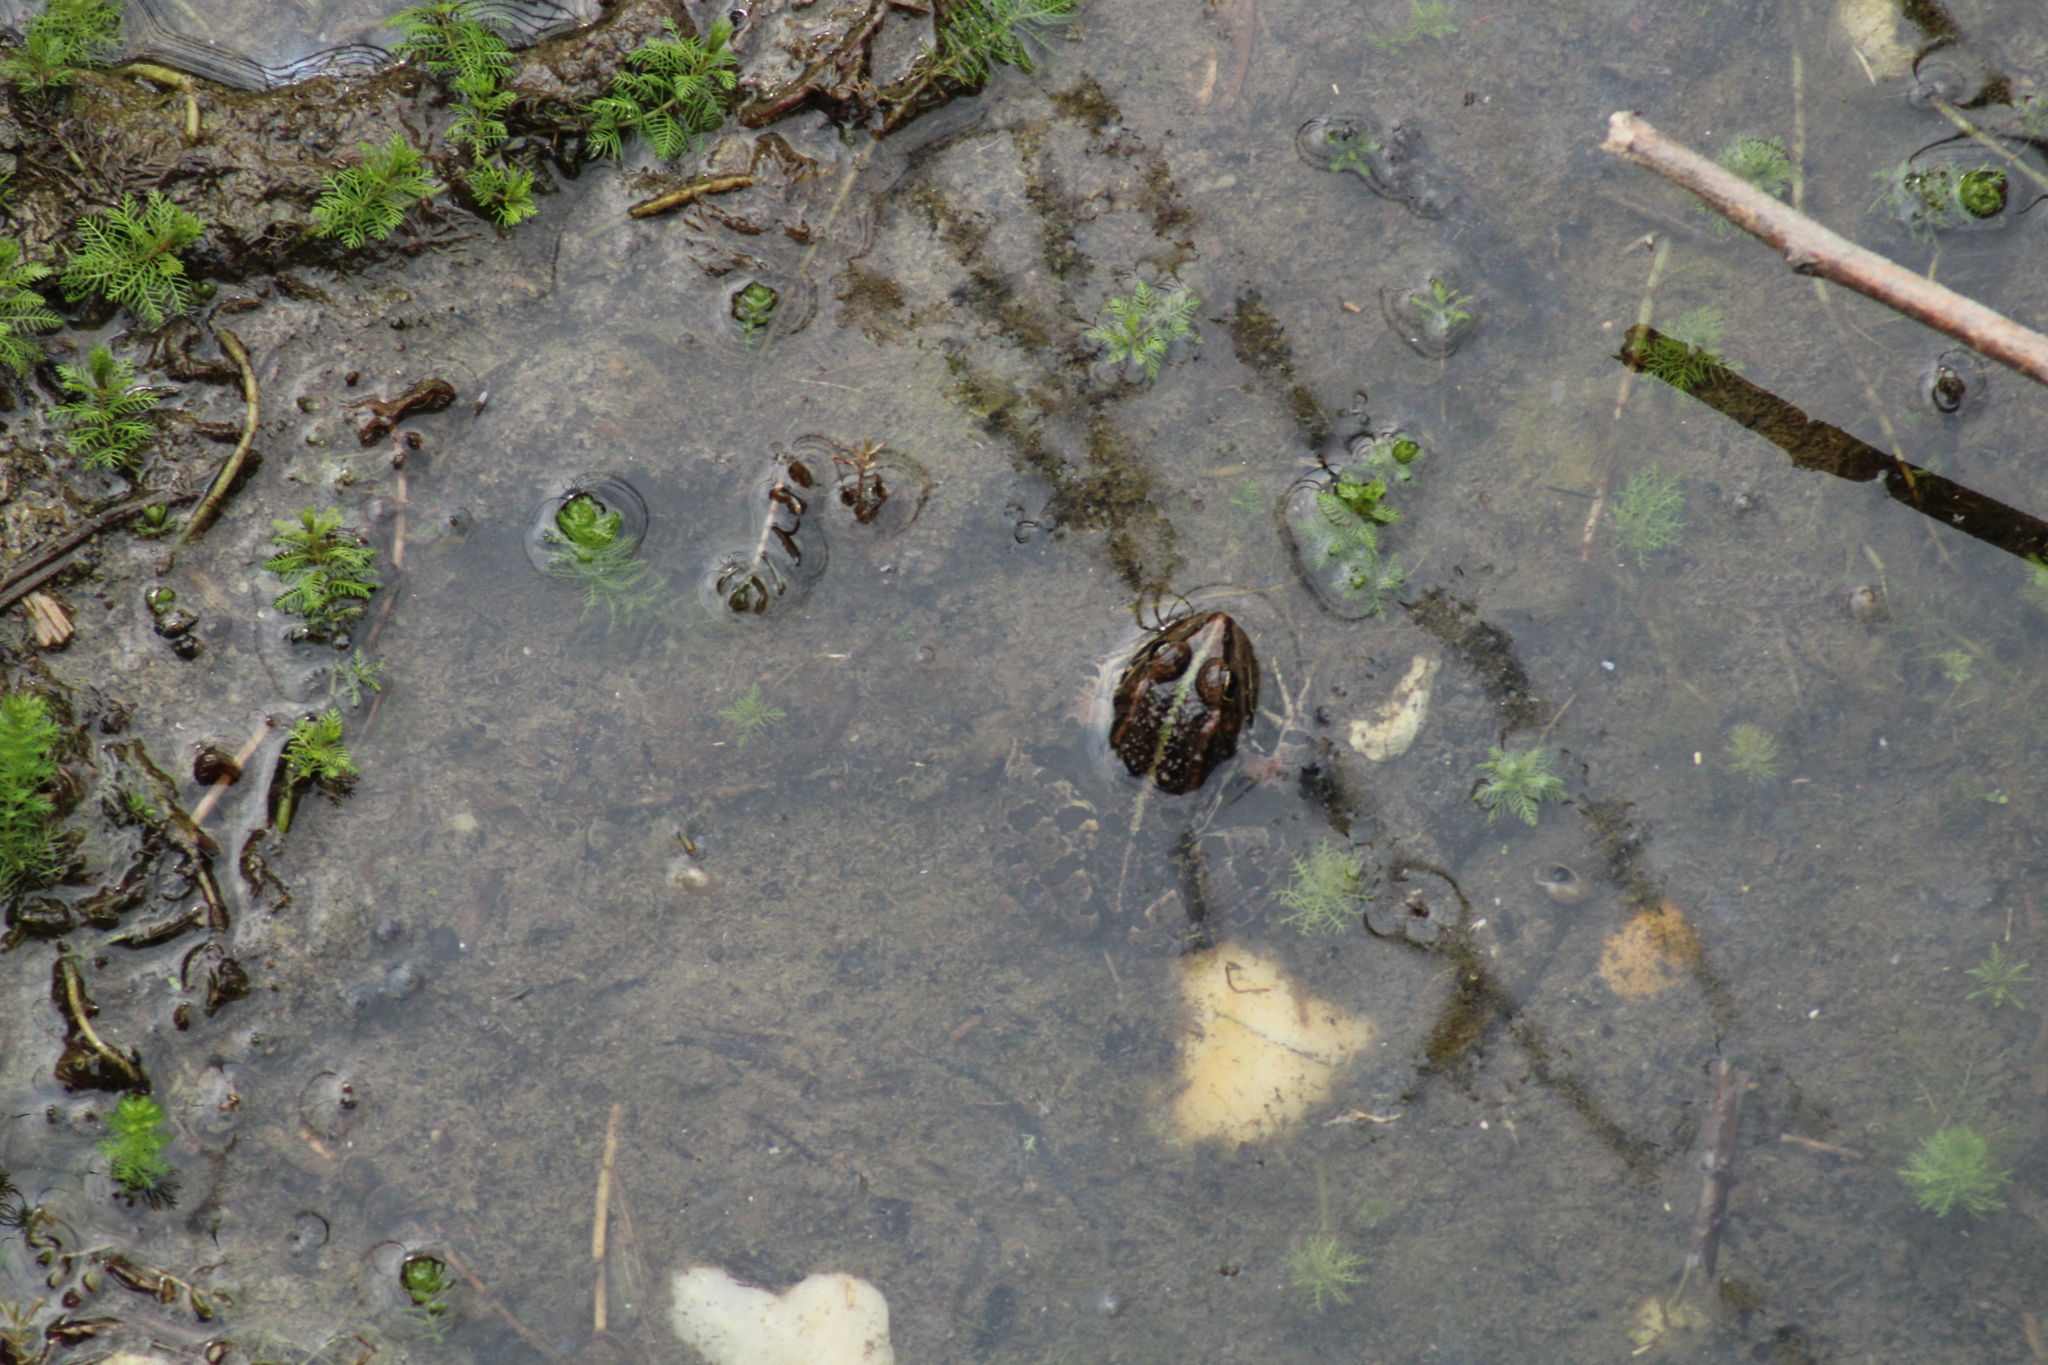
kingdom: Animalia
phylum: Chordata
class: Amphibia
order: Anura
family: Ranidae
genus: Pelophylax
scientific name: Pelophylax
